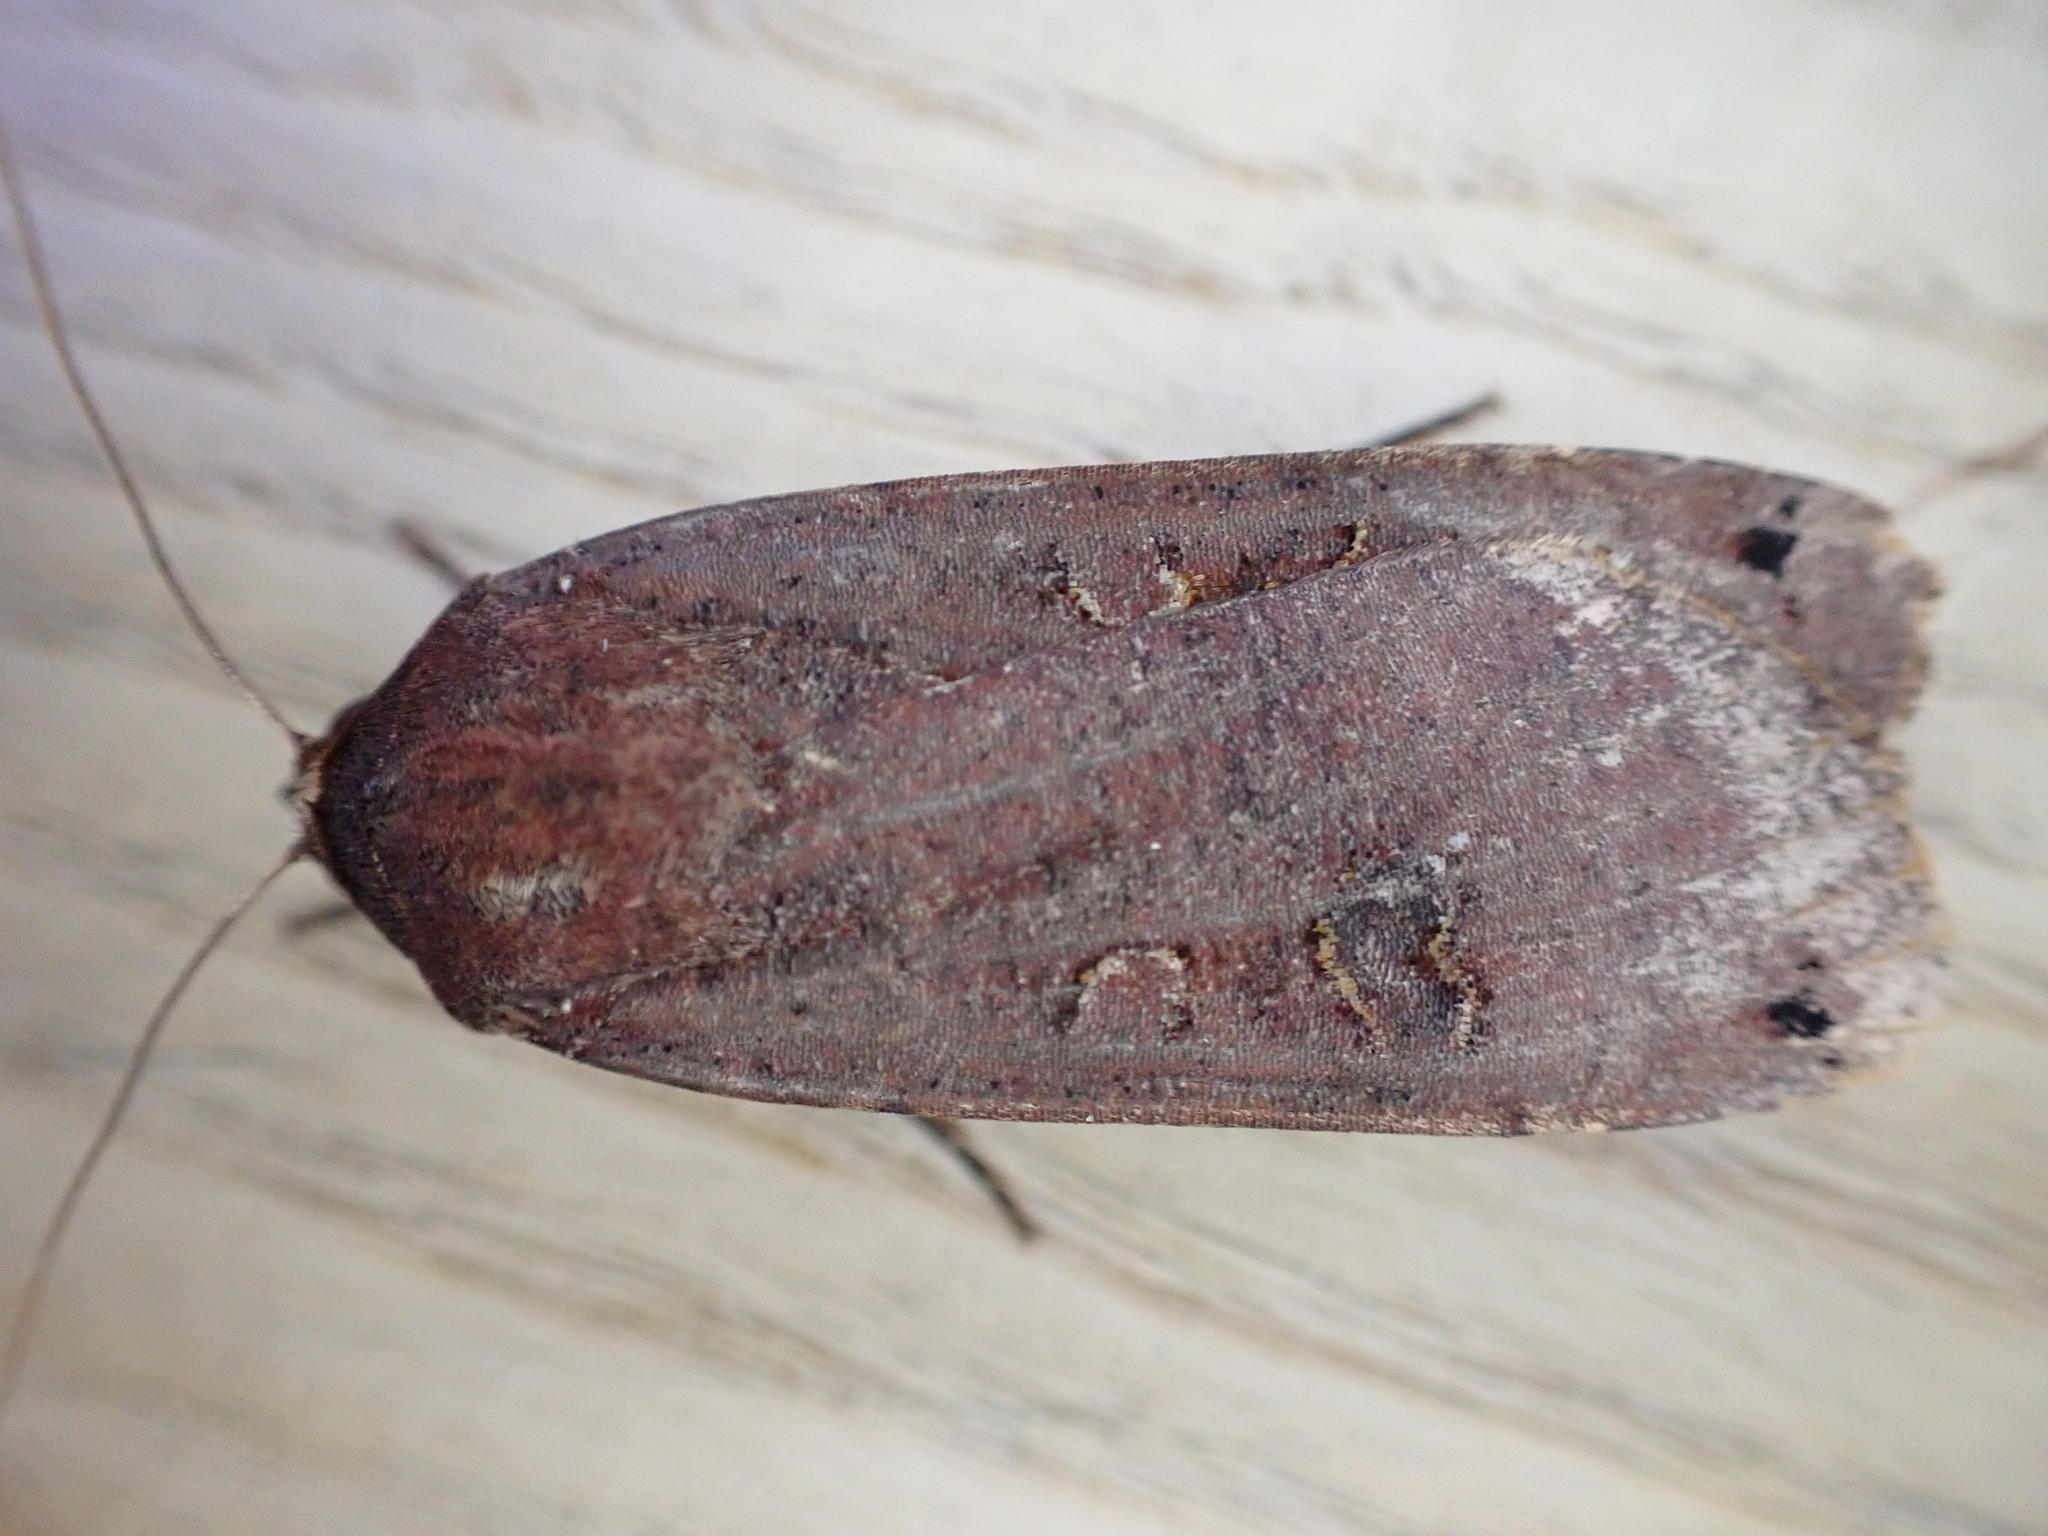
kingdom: Animalia
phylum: Arthropoda
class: Insecta
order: Lepidoptera
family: Noctuidae
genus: Noctua
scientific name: Noctua pronuba
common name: Large yellow underwing
